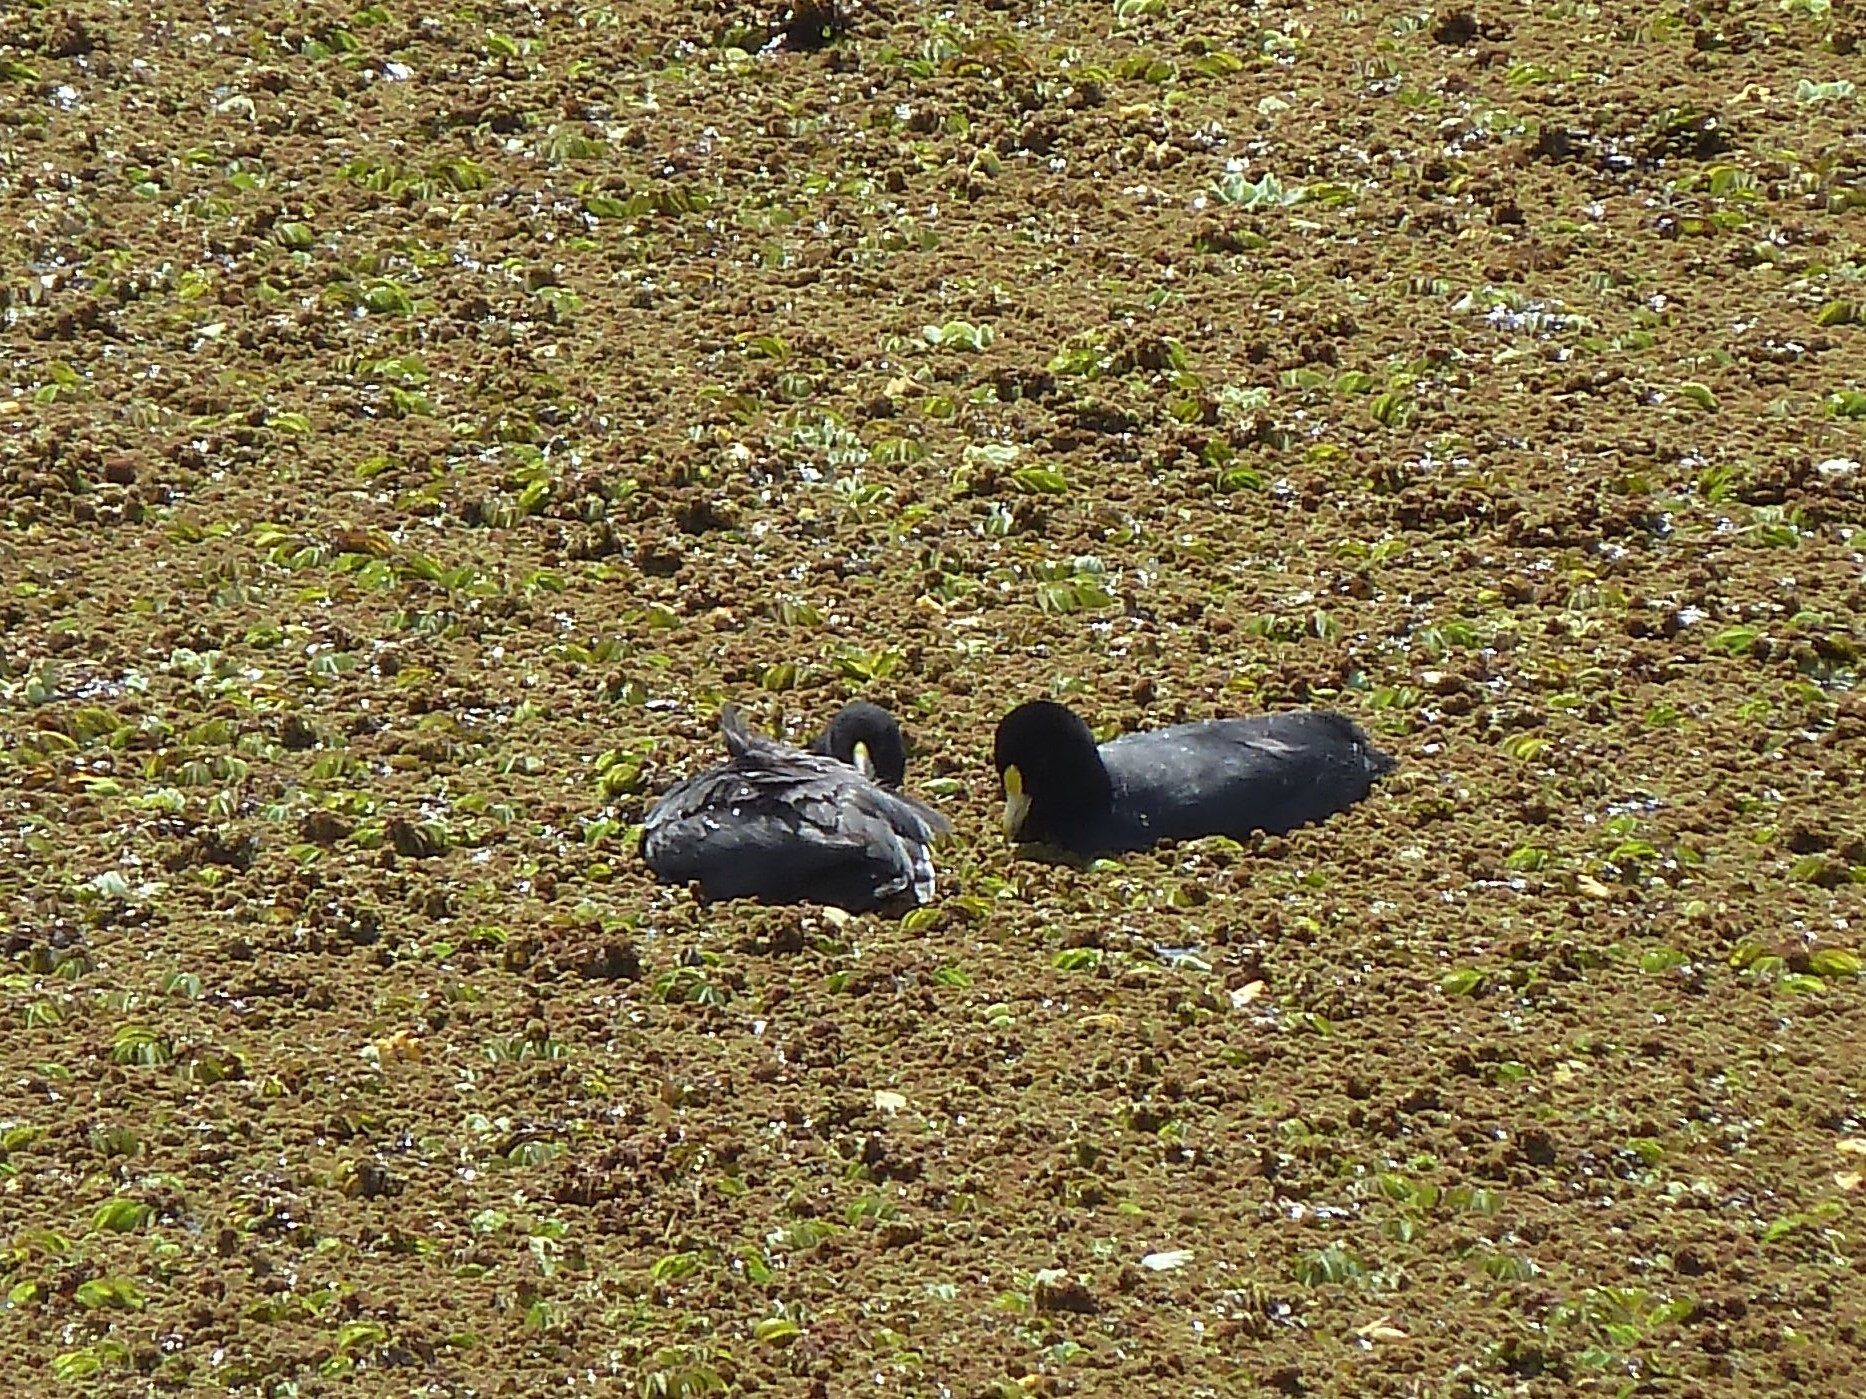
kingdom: Animalia
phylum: Chordata
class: Aves
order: Gruiformes
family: Rallidae
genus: Fulica
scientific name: Fulica leucoptera
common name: White-winged coot
